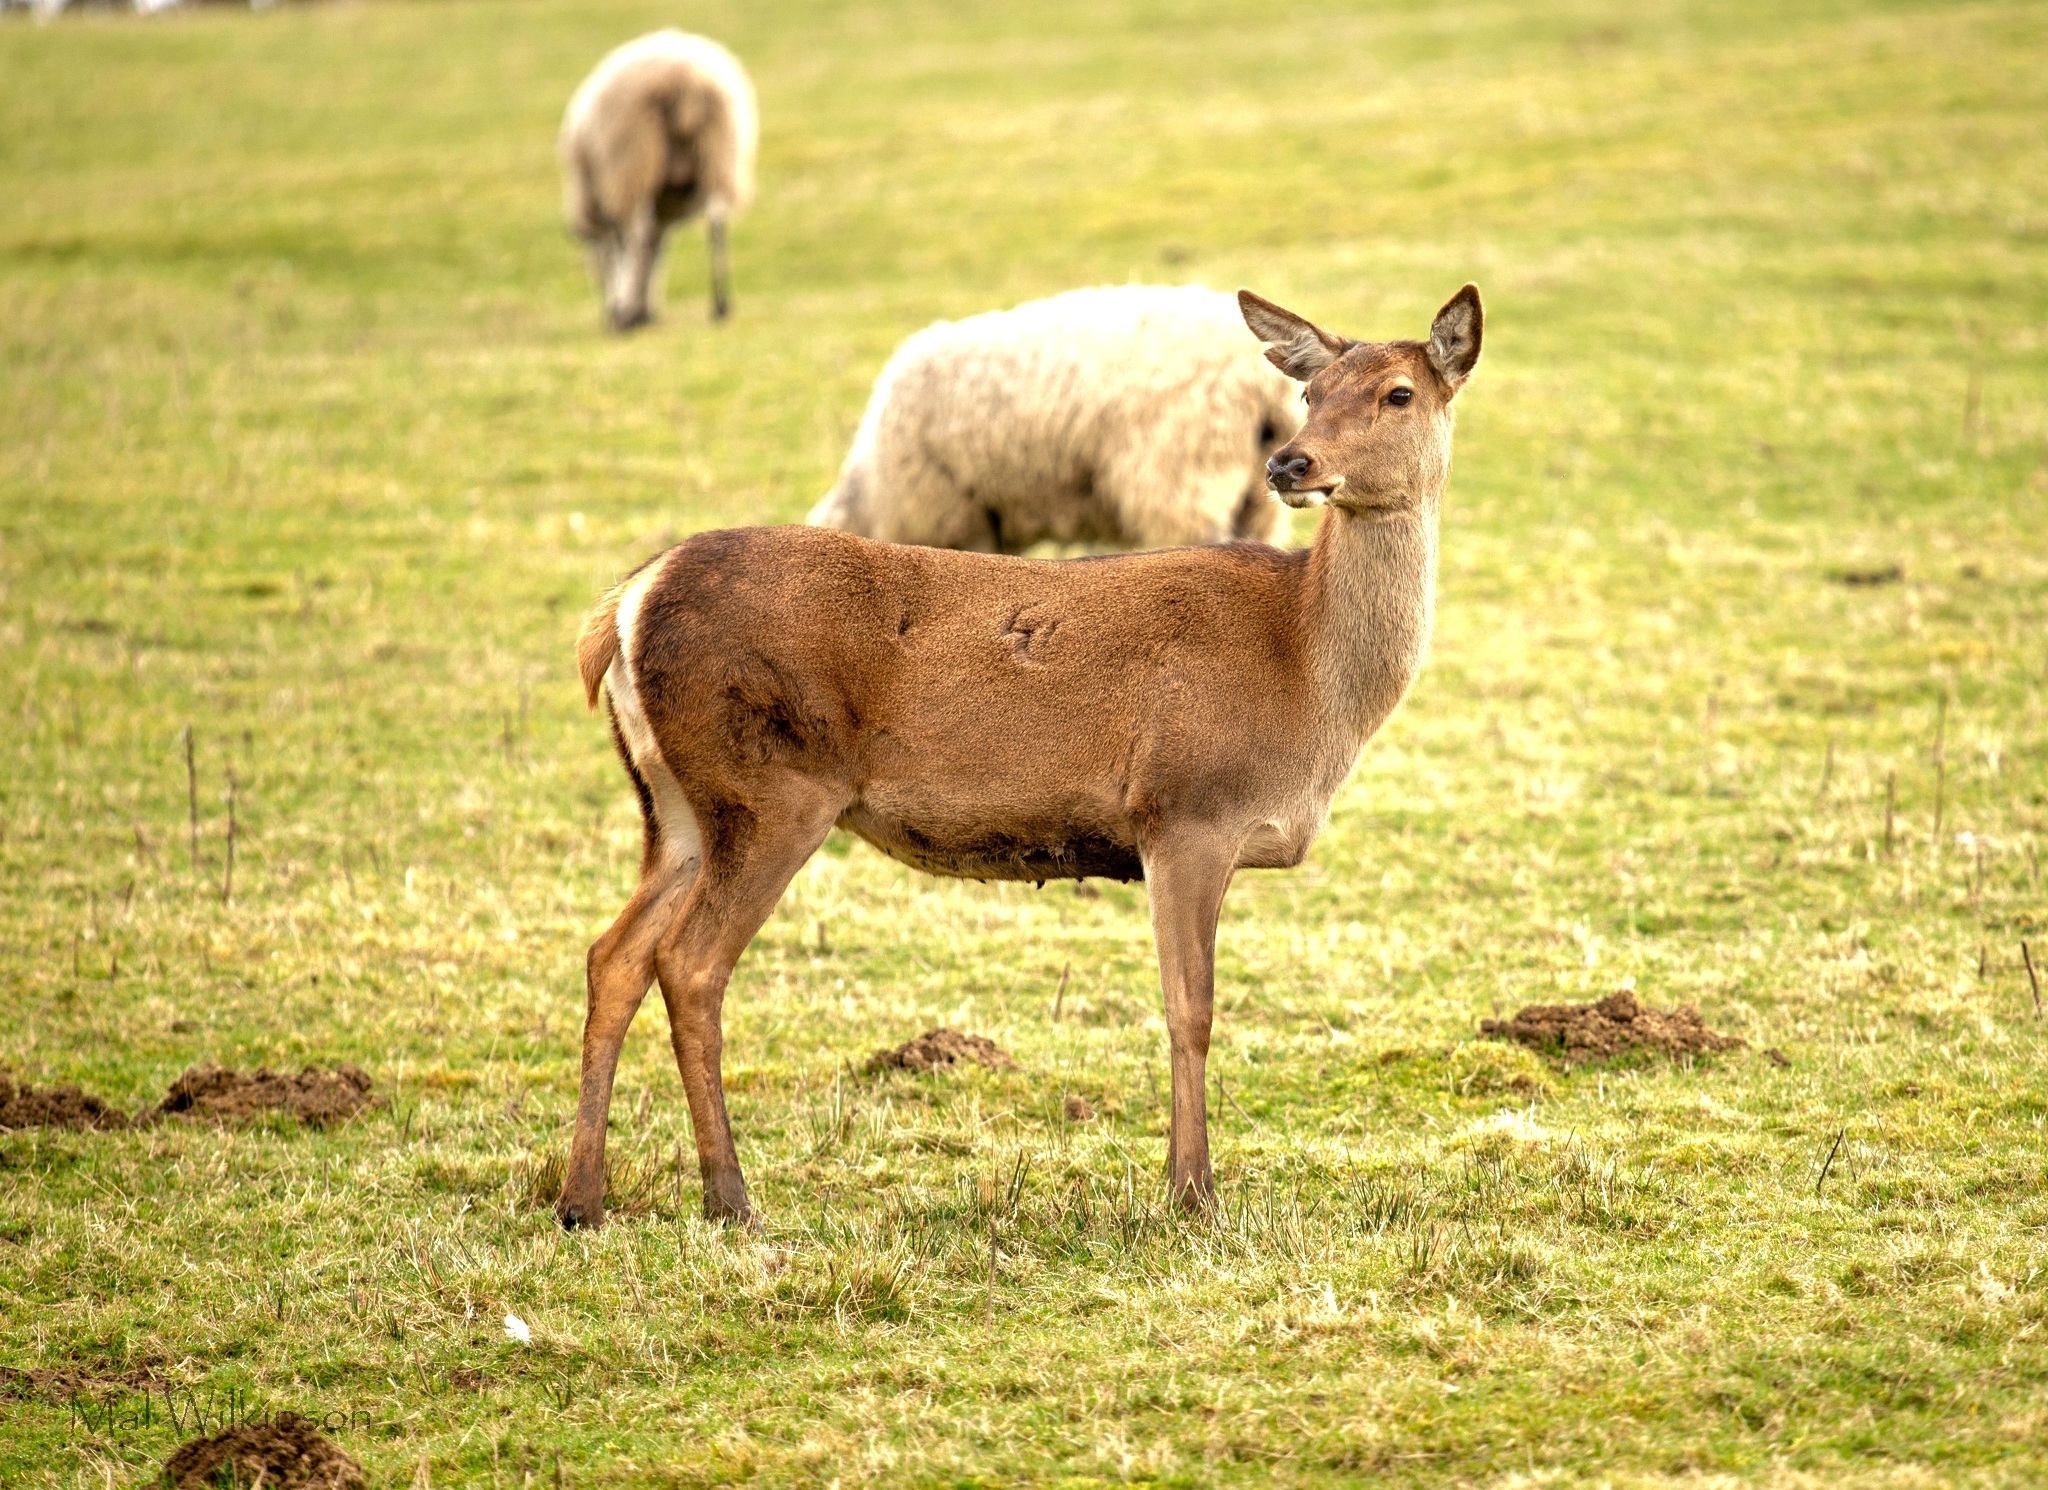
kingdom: Animalia
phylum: Chordata
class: Mammalia
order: Artiodactyla
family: Cervidae
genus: Cervus
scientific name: Cervus elaphus
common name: Red deer
